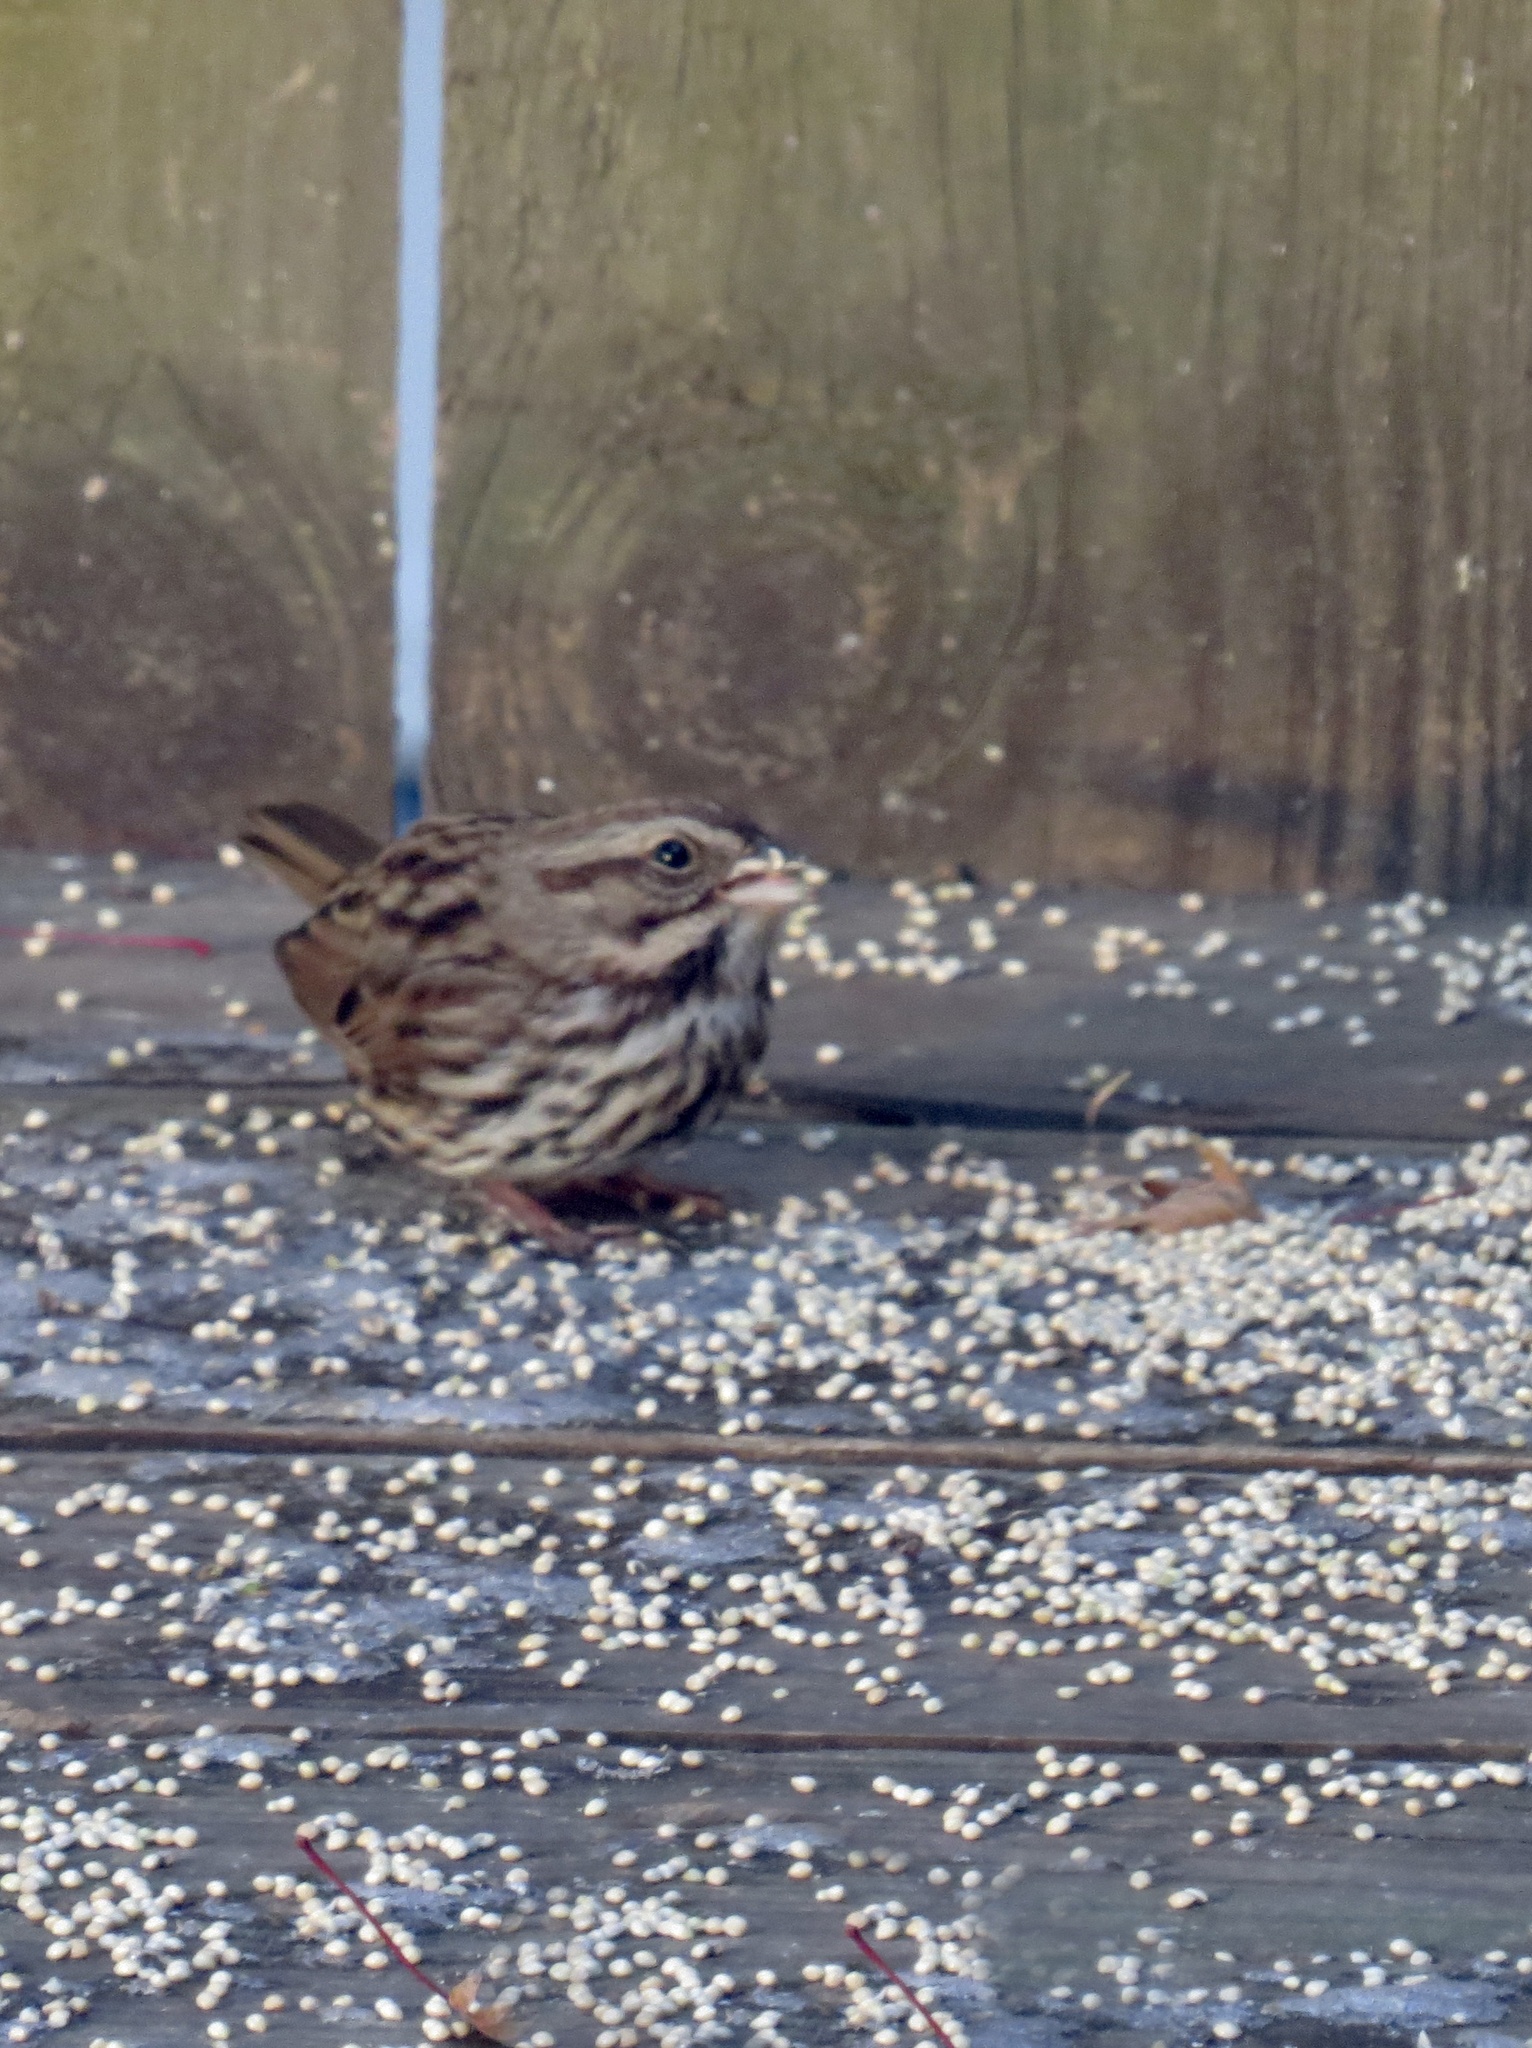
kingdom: Animalia
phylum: Chordata
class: Aves
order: Passeriformes
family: Passerellidae
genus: Melospiza
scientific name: Melospiza melodia
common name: Song sparrow
